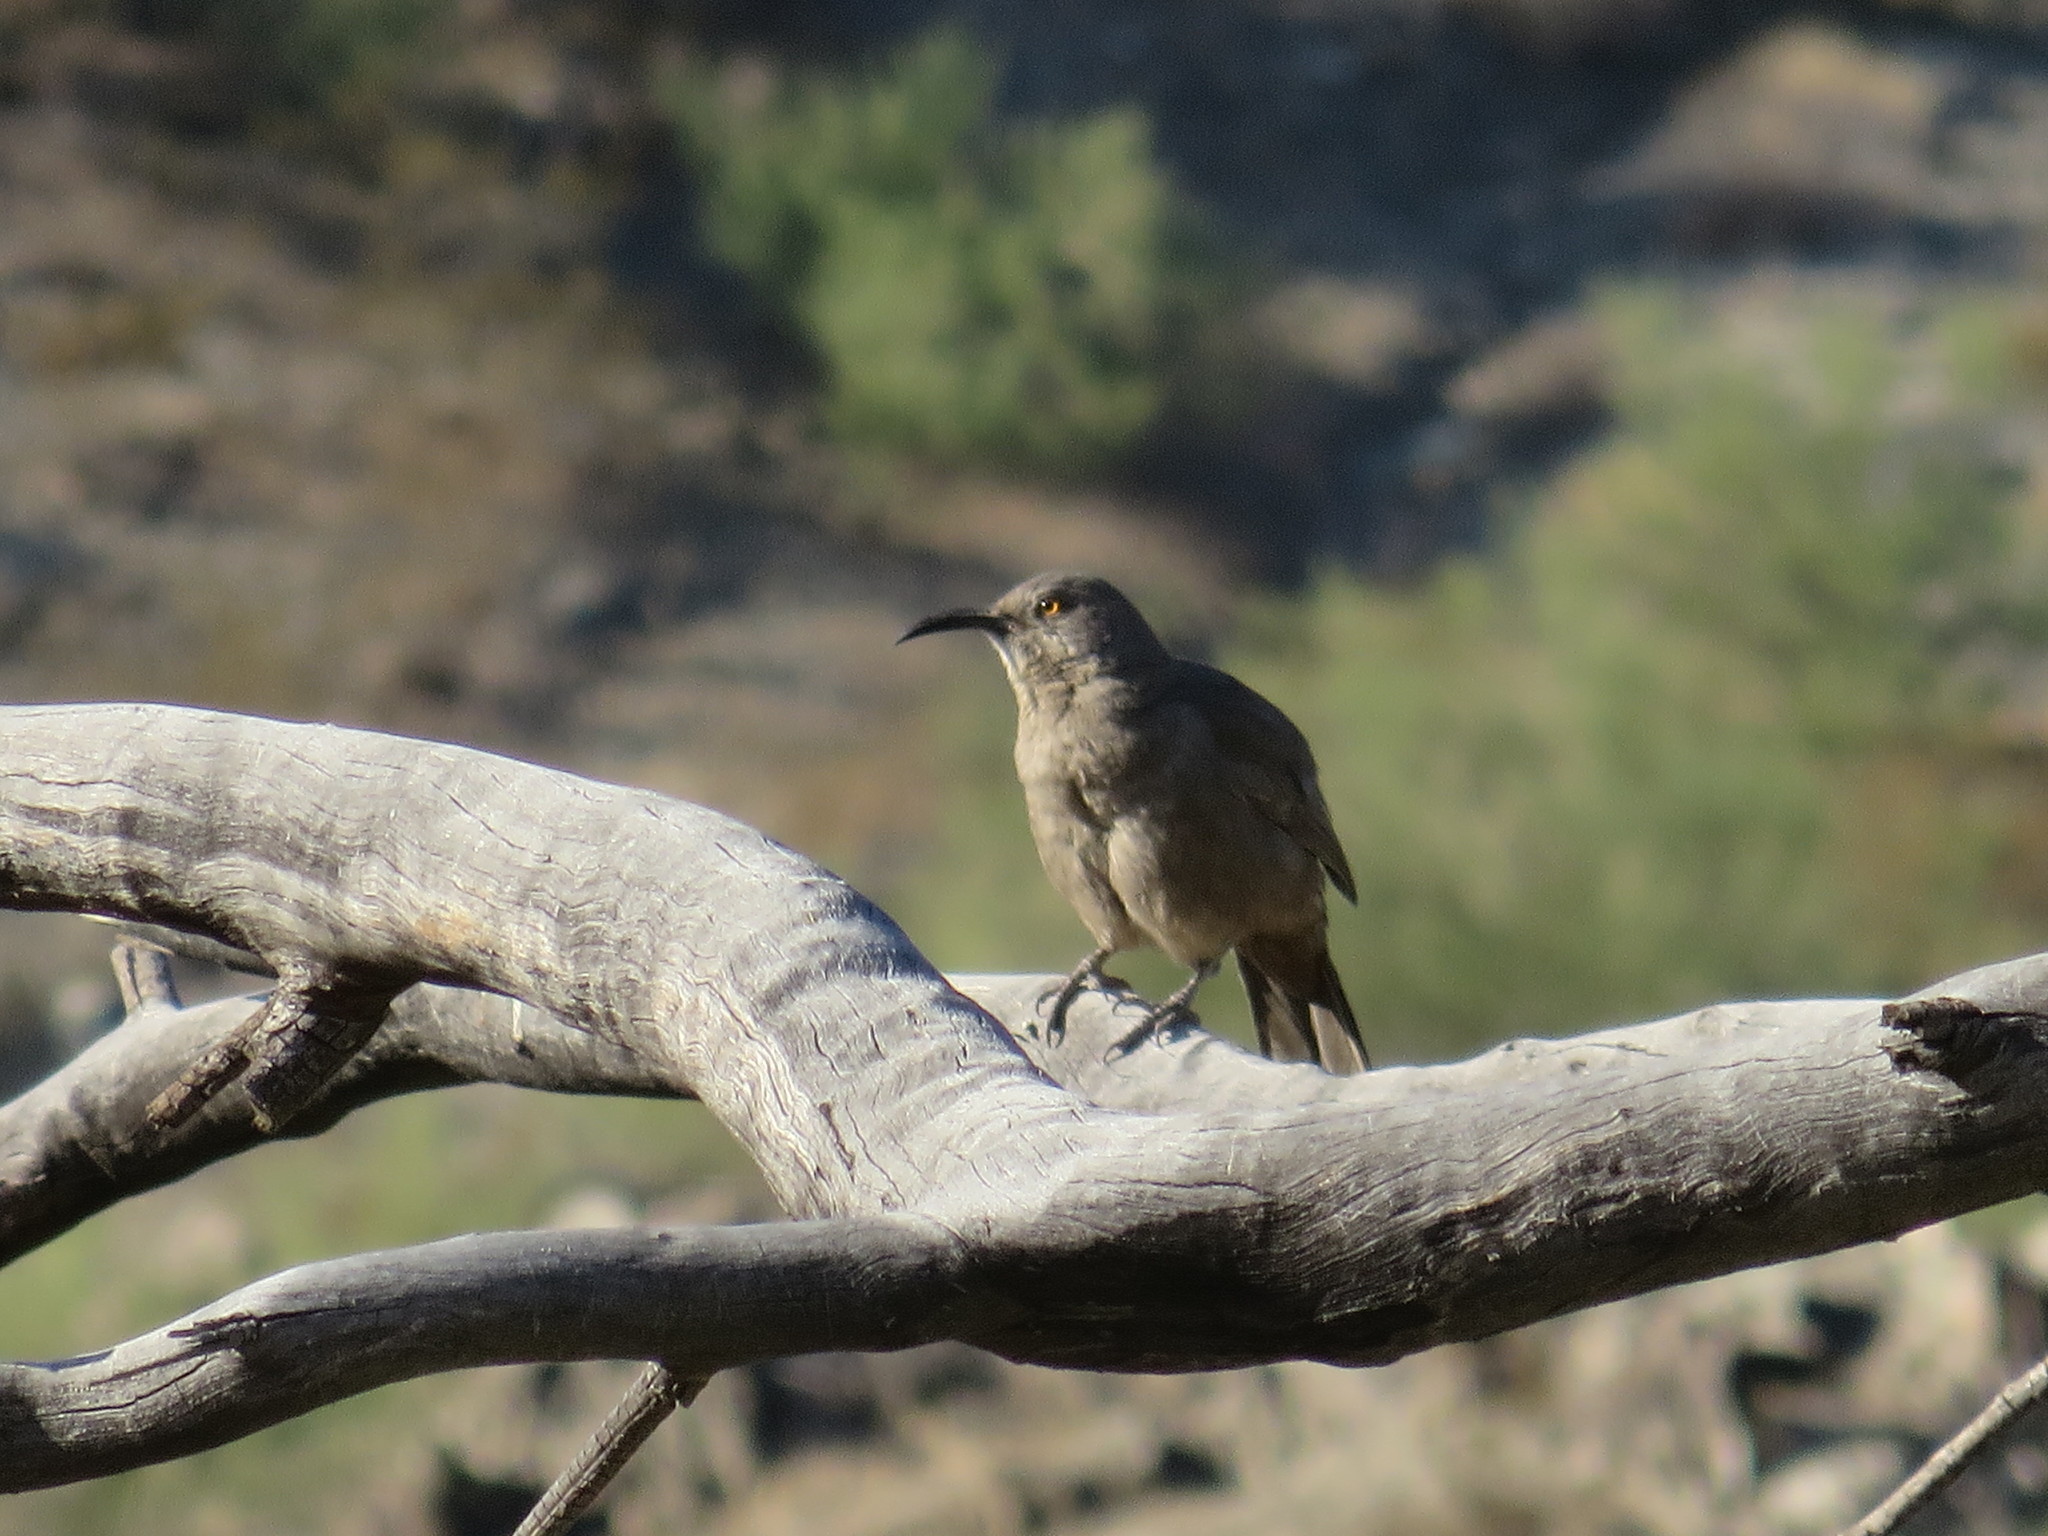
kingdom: Animalia
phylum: Chordata
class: Aves
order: Passeriformes
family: Mimidae
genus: Toxostoma
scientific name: Toxostoma curvirostre
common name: Curve-billed thrasher
